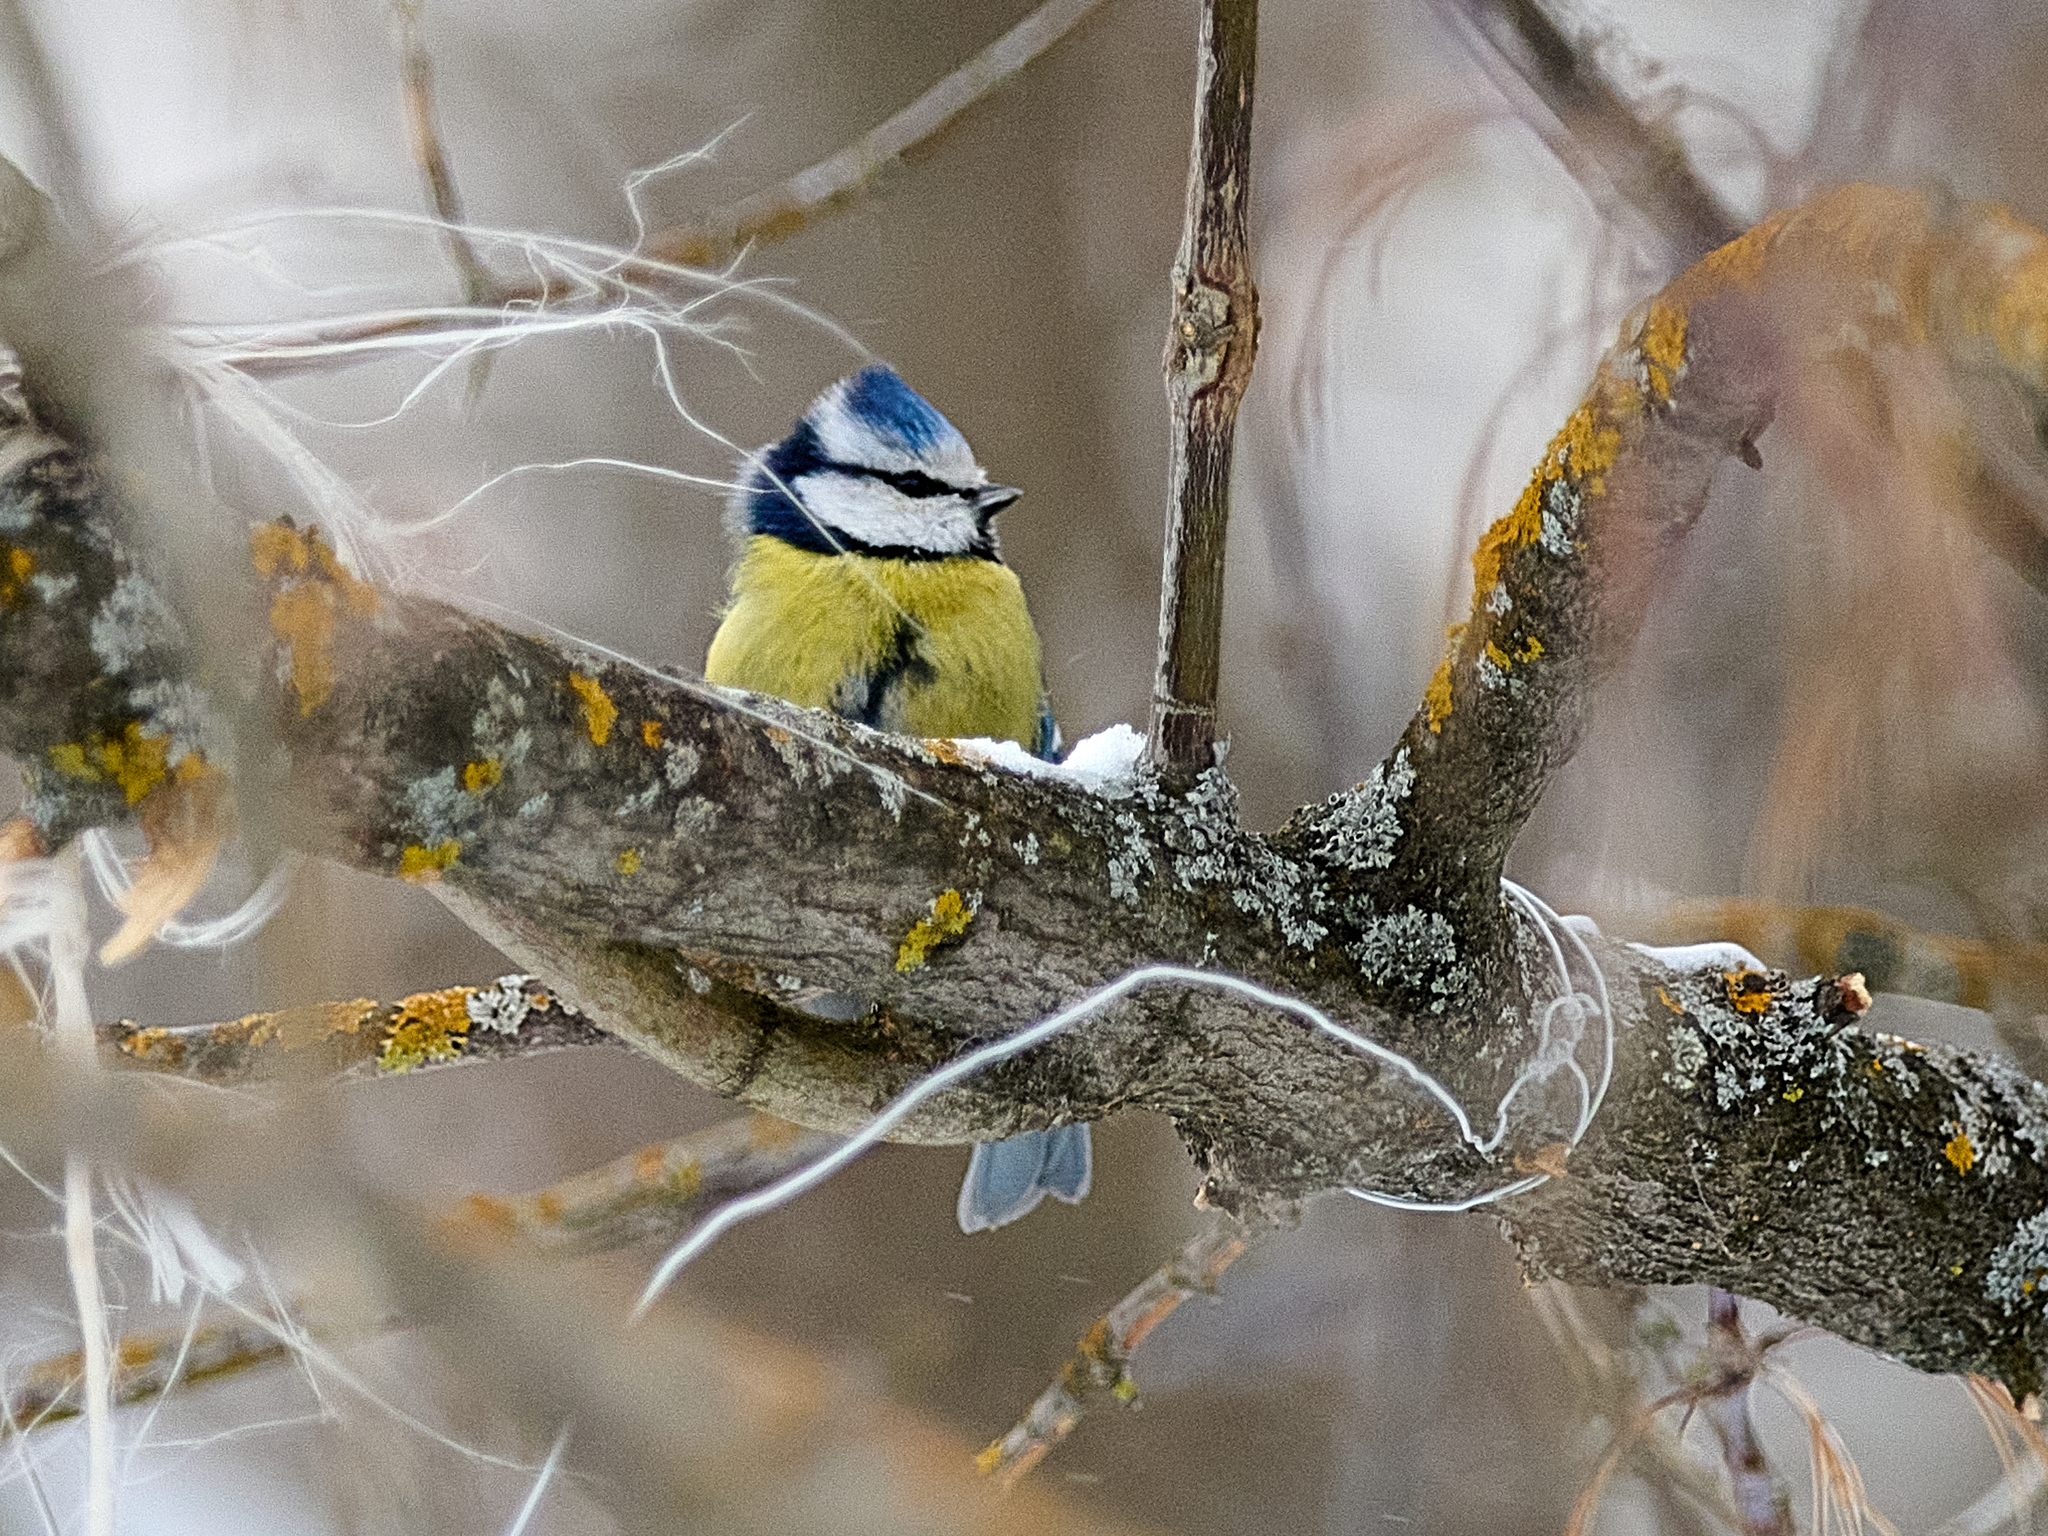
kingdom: Animalia
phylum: Chordata
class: Aves
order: Passeriformes
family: Paridae
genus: Cyanistes
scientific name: Cyanistes caeruleus
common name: Eurasian blue tit
